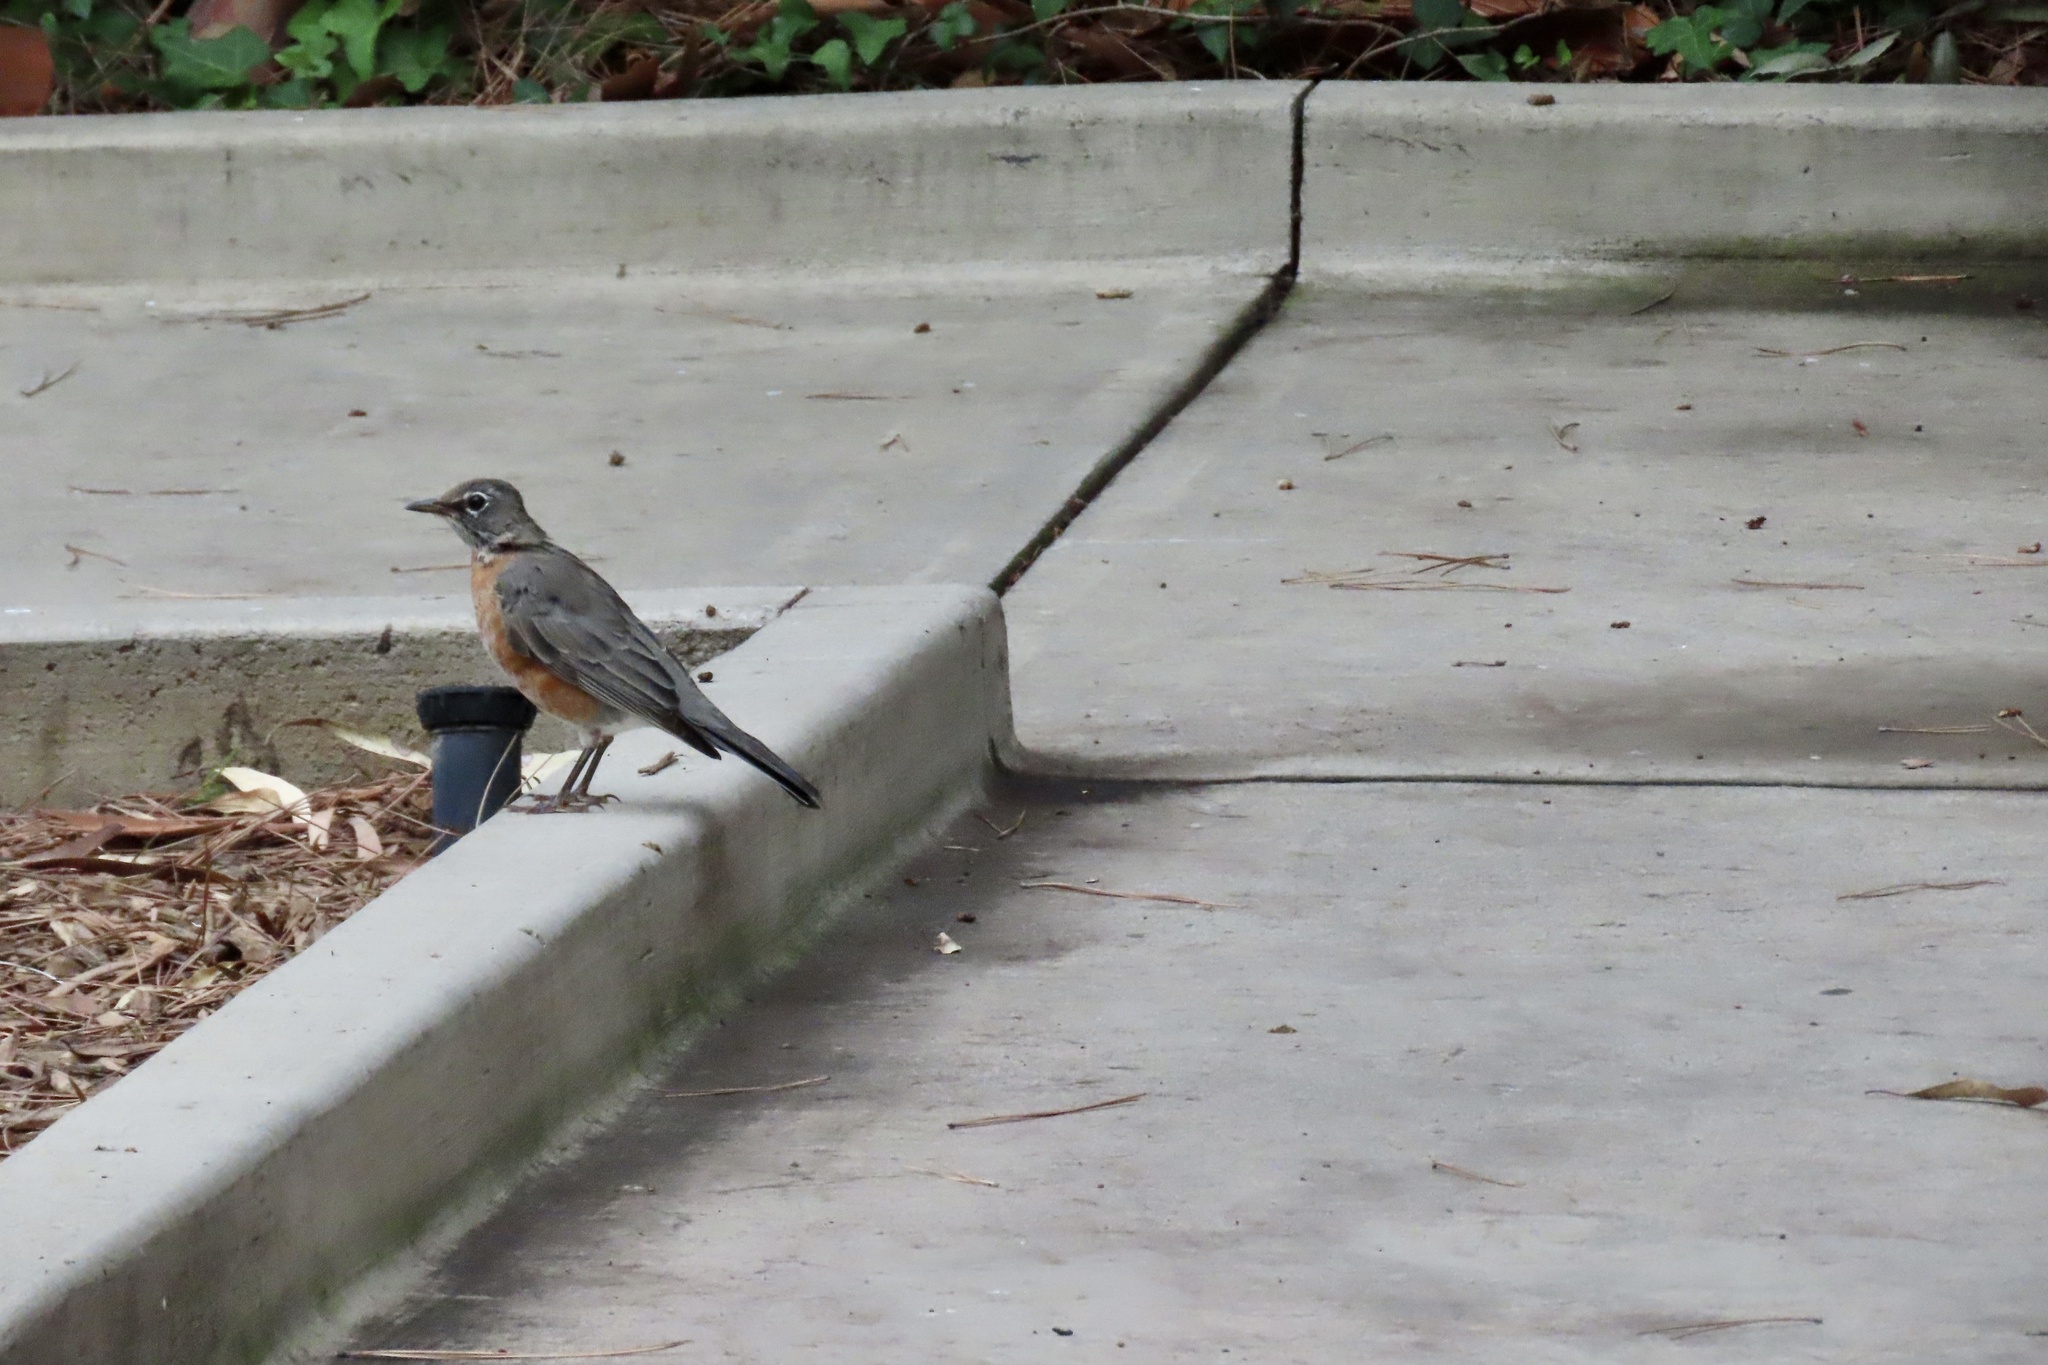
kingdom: Animalia
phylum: Chordata
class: Aves
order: Passeriformes
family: Turdidae
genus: Turdus
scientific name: Turdus migratorius
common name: American robin
